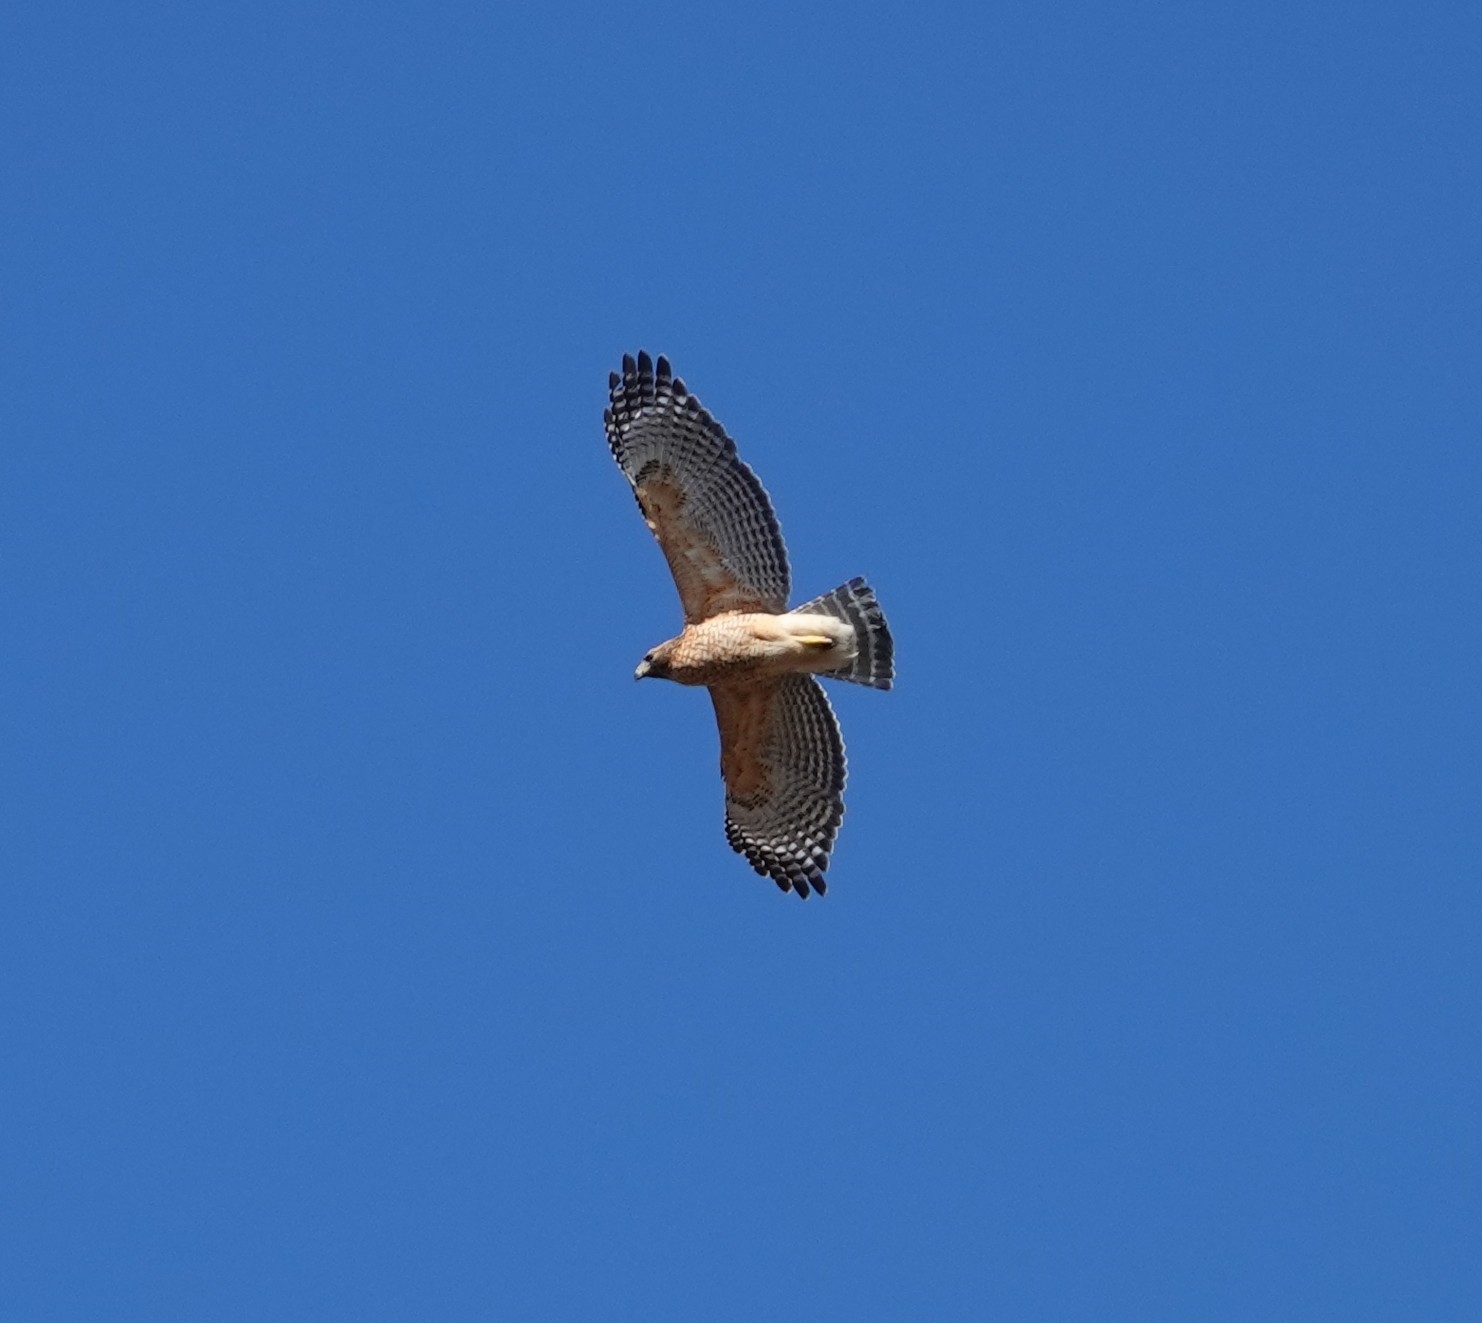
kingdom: Animalia
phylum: Chordata
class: Aves
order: Accipitriformes
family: Accipitridae
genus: Buteo
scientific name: Buteo lineatus
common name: Red-shouldered hawk
